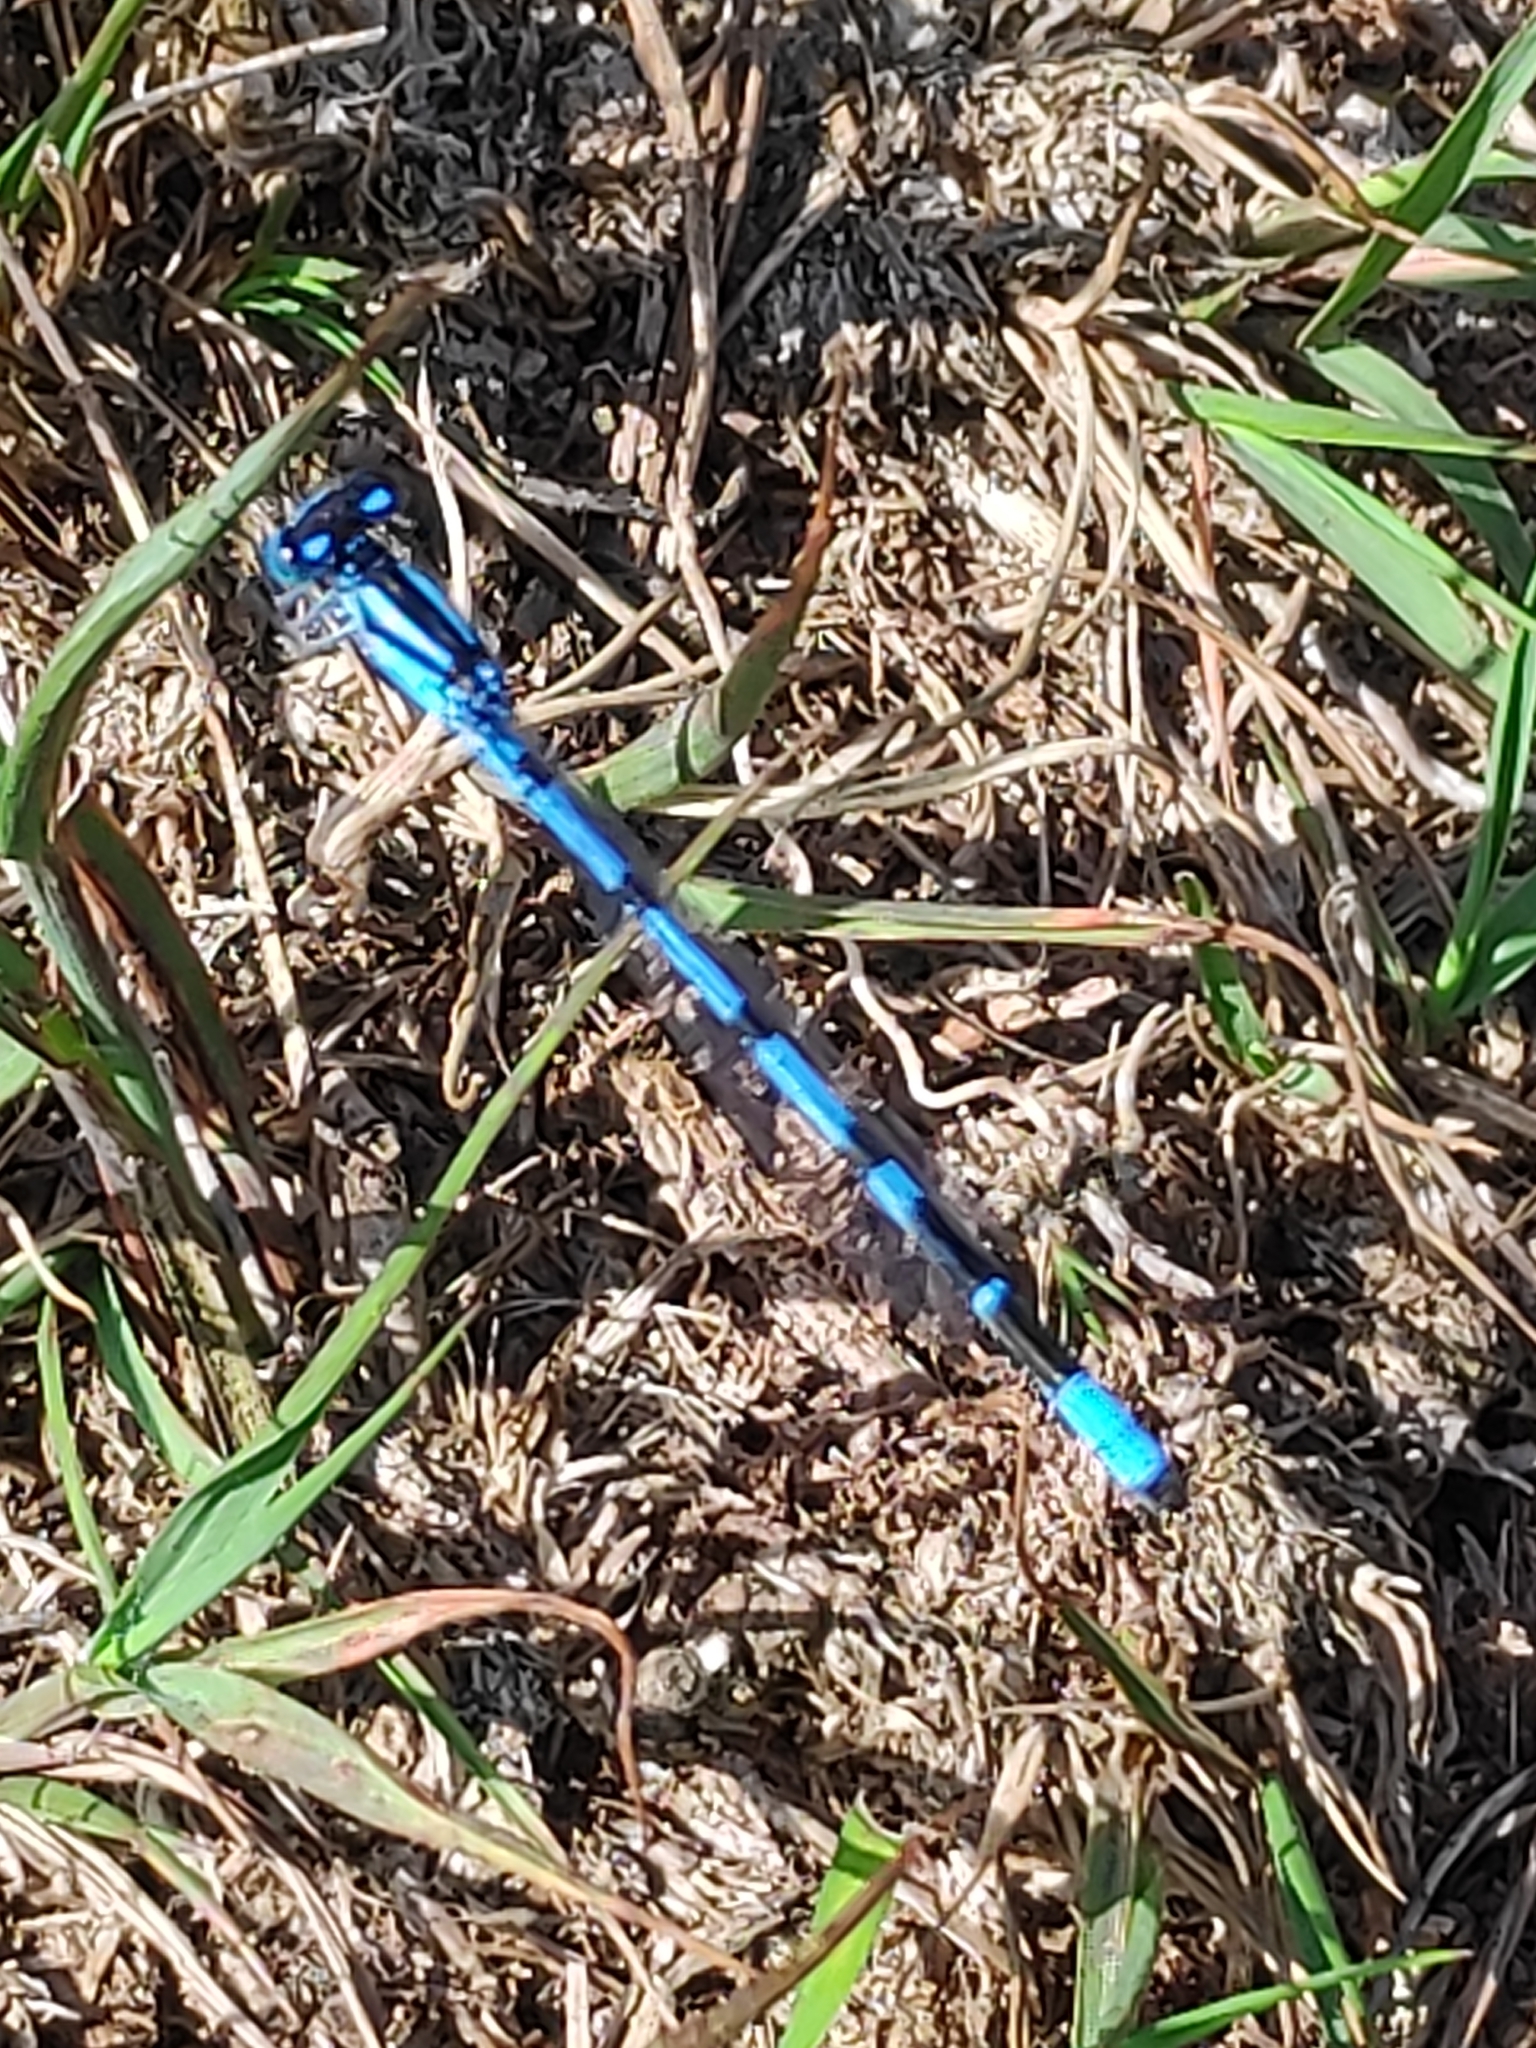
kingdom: Animalia
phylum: Arthropoda
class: Insecta
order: Odonata
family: Coenagrionidae
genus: Enallagma
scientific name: Enallagma cyathigerum
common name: Common blue damselfly
